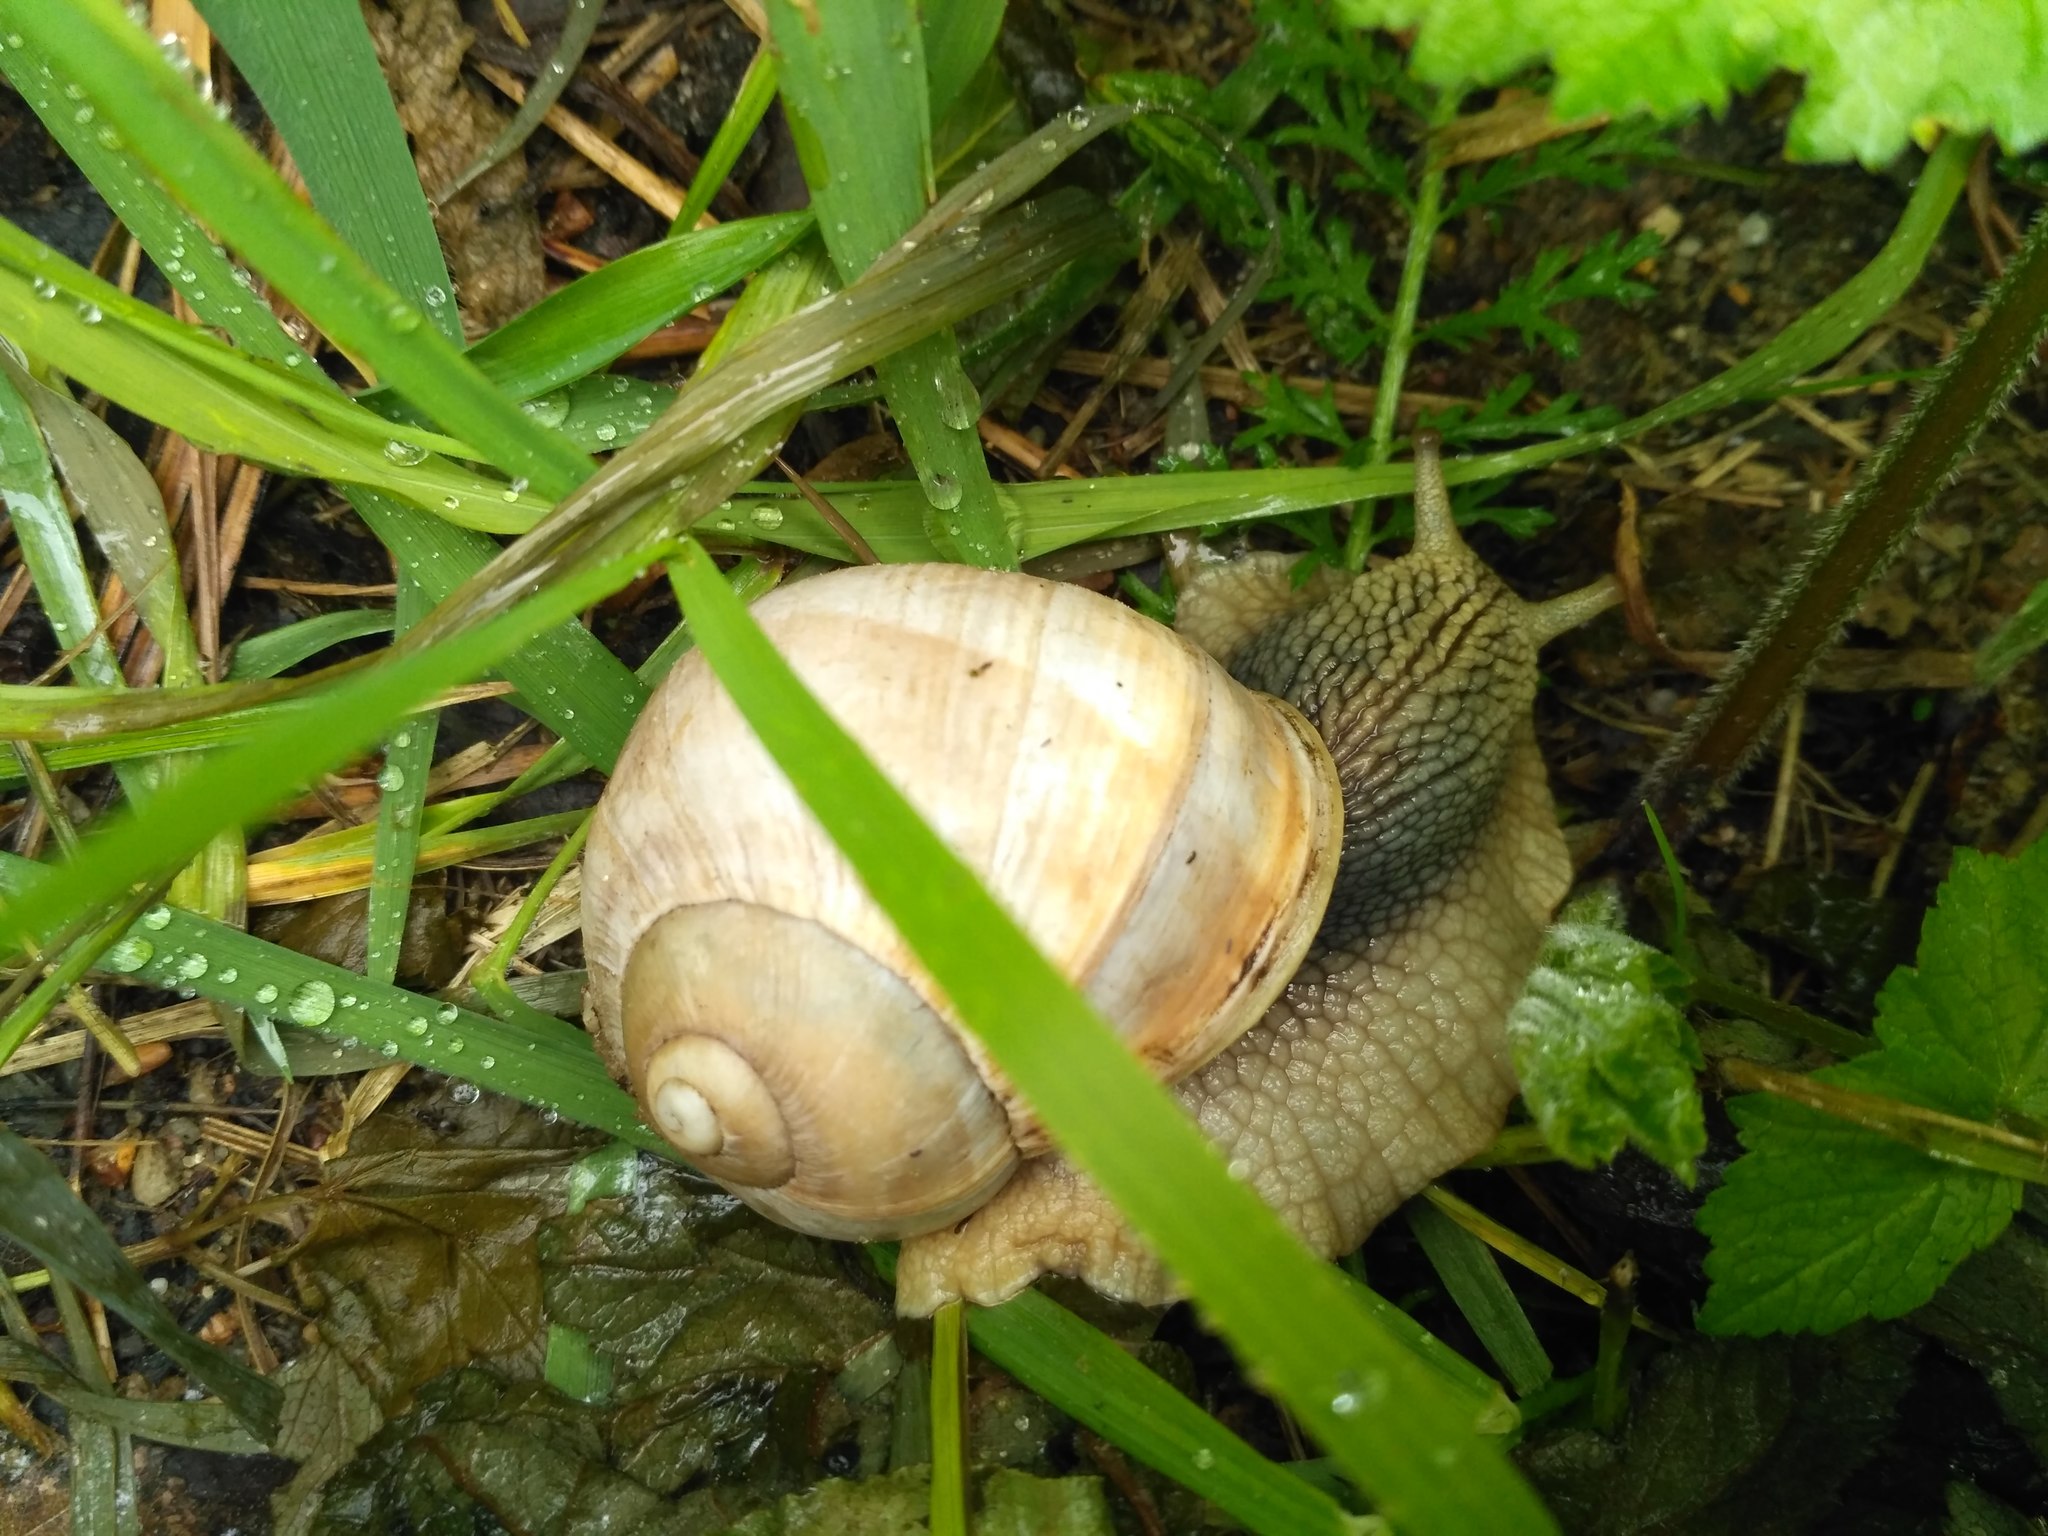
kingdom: Animalia
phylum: Mollusca
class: Gastropoda
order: Stylommatophora
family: Helicidae
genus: Helix
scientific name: Helix pomatia
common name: Roman snail
